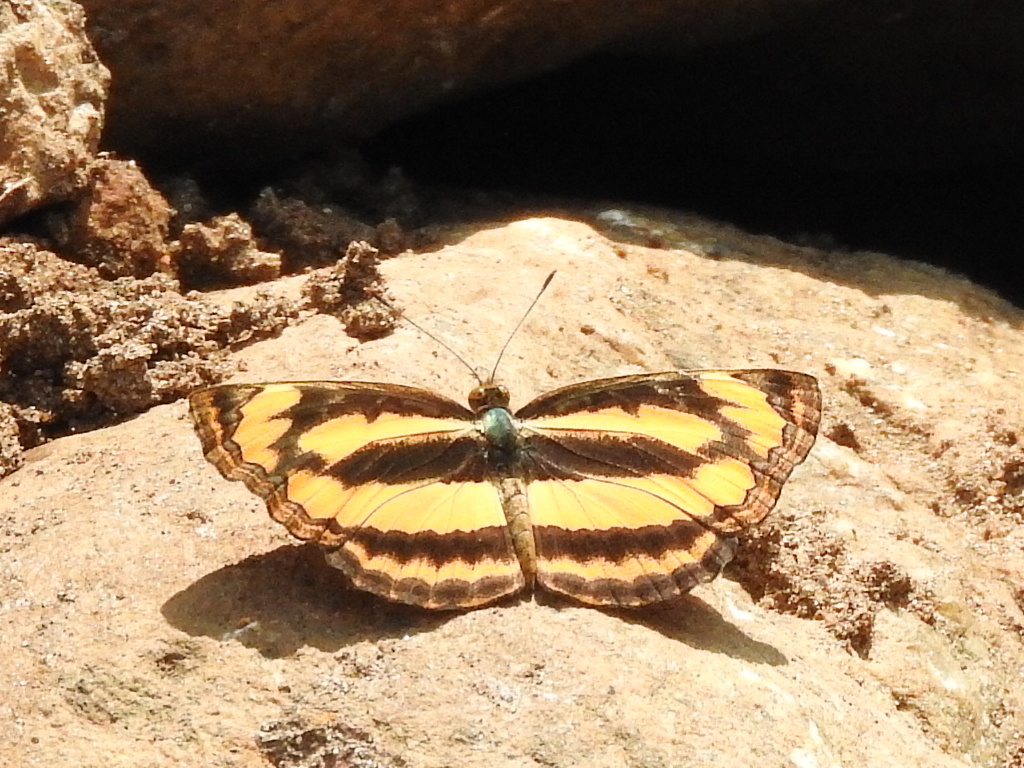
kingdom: Animalia
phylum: Arthropoda
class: Insecta
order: Lepidoptera
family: Nymphalidae
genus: Pantoporia
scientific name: Pantoporia hordonia
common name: Common lascar
